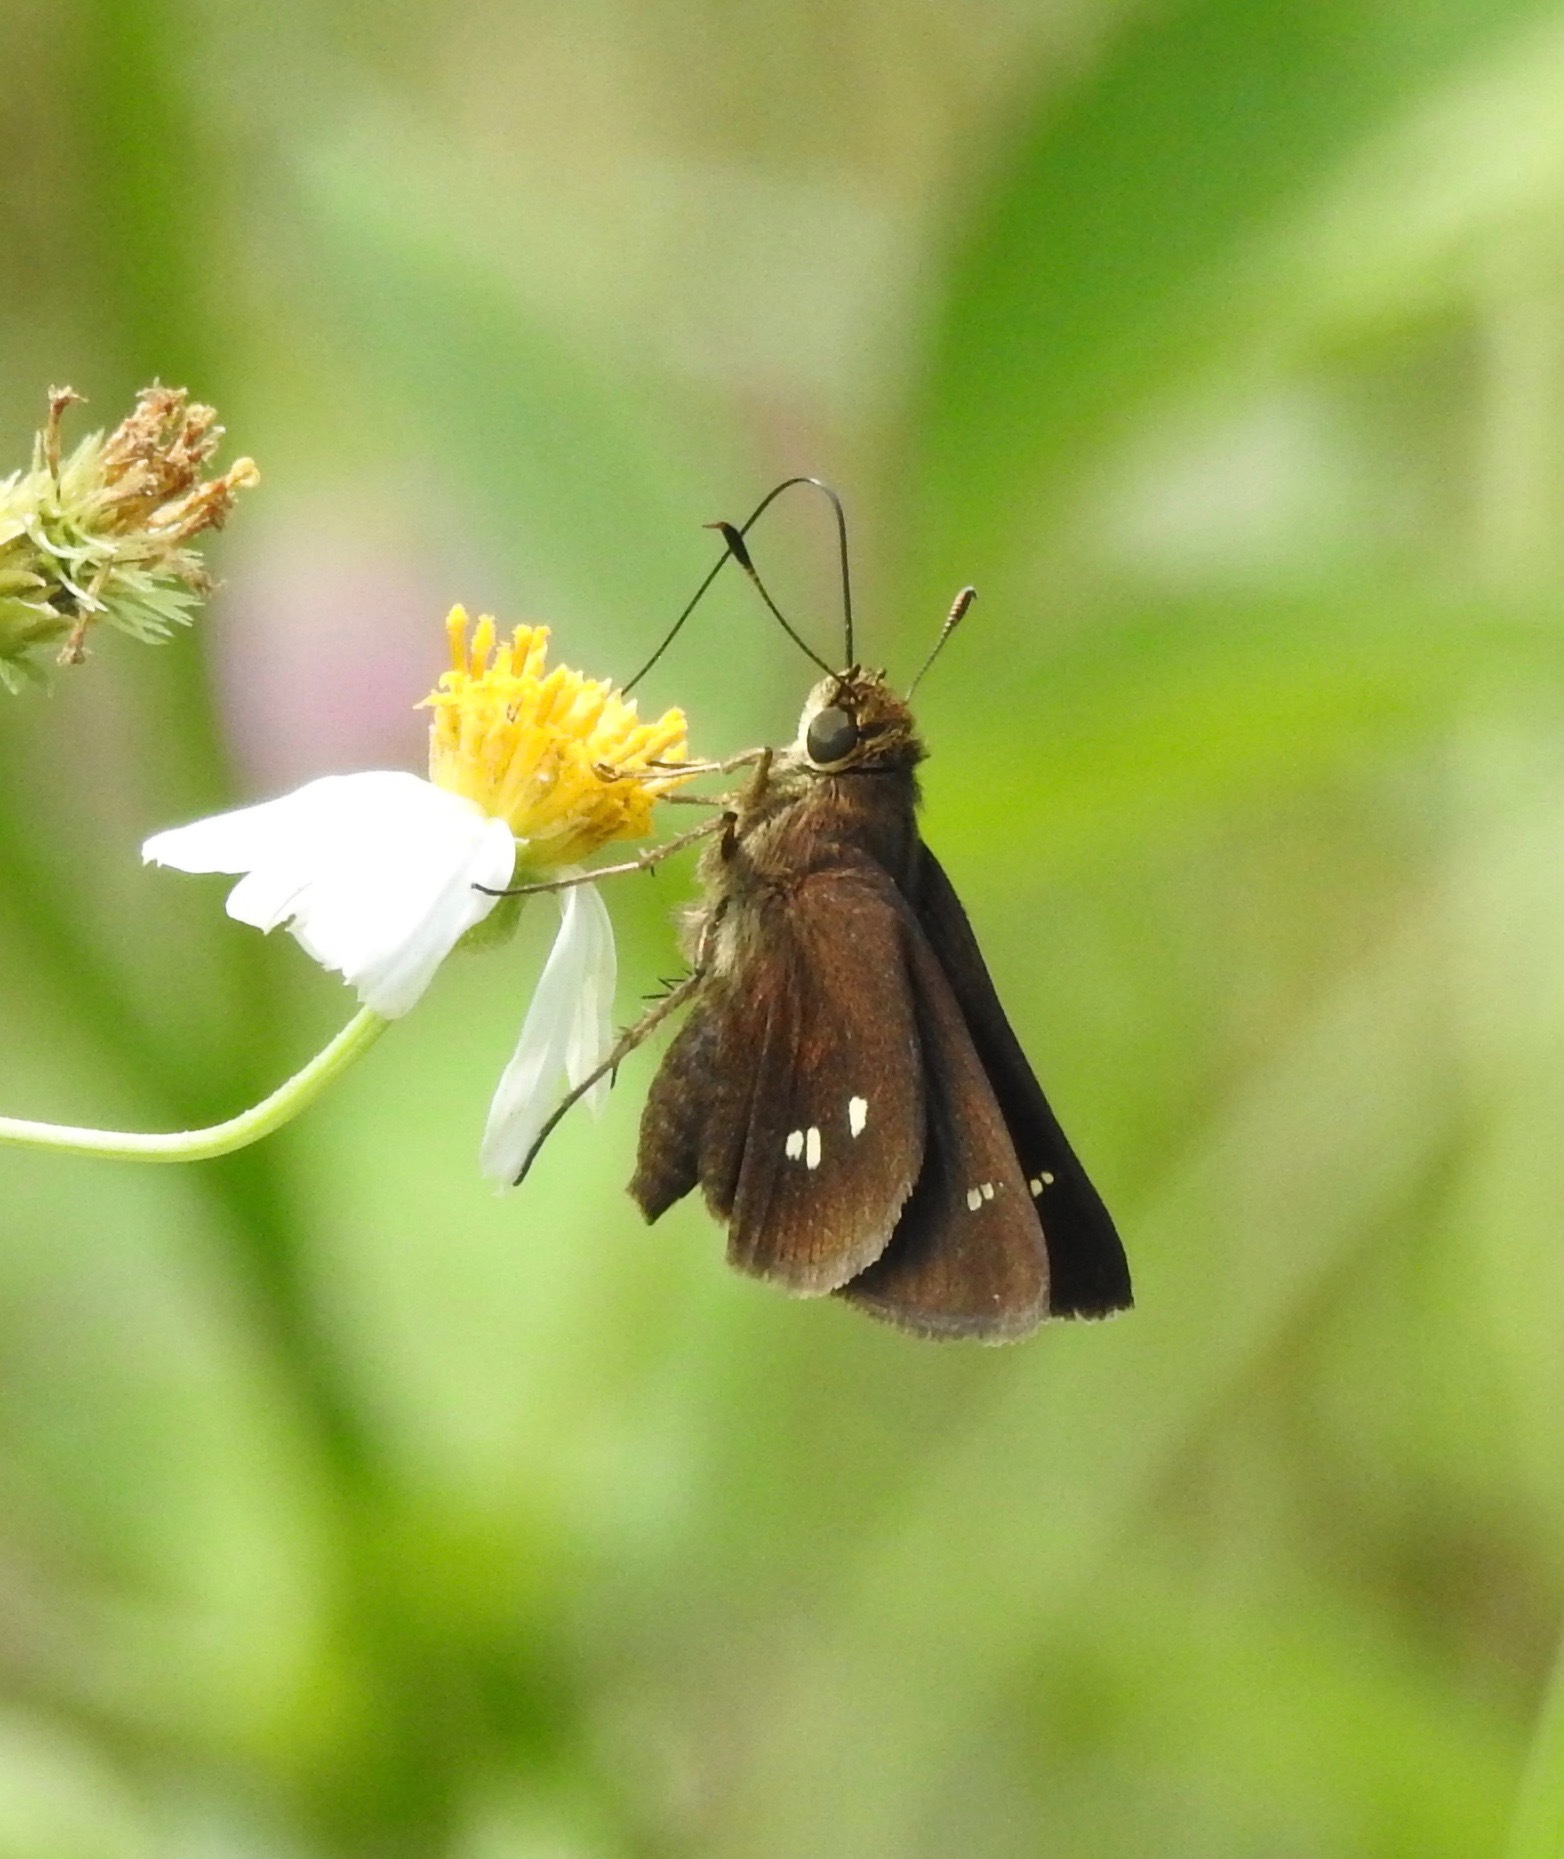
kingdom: Animalia
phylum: Arthropoda
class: Insecta
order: Lepidoptera
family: Hesperiidae
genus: Oligoria
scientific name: Oligoria maculata
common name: Twin-spot skipper
